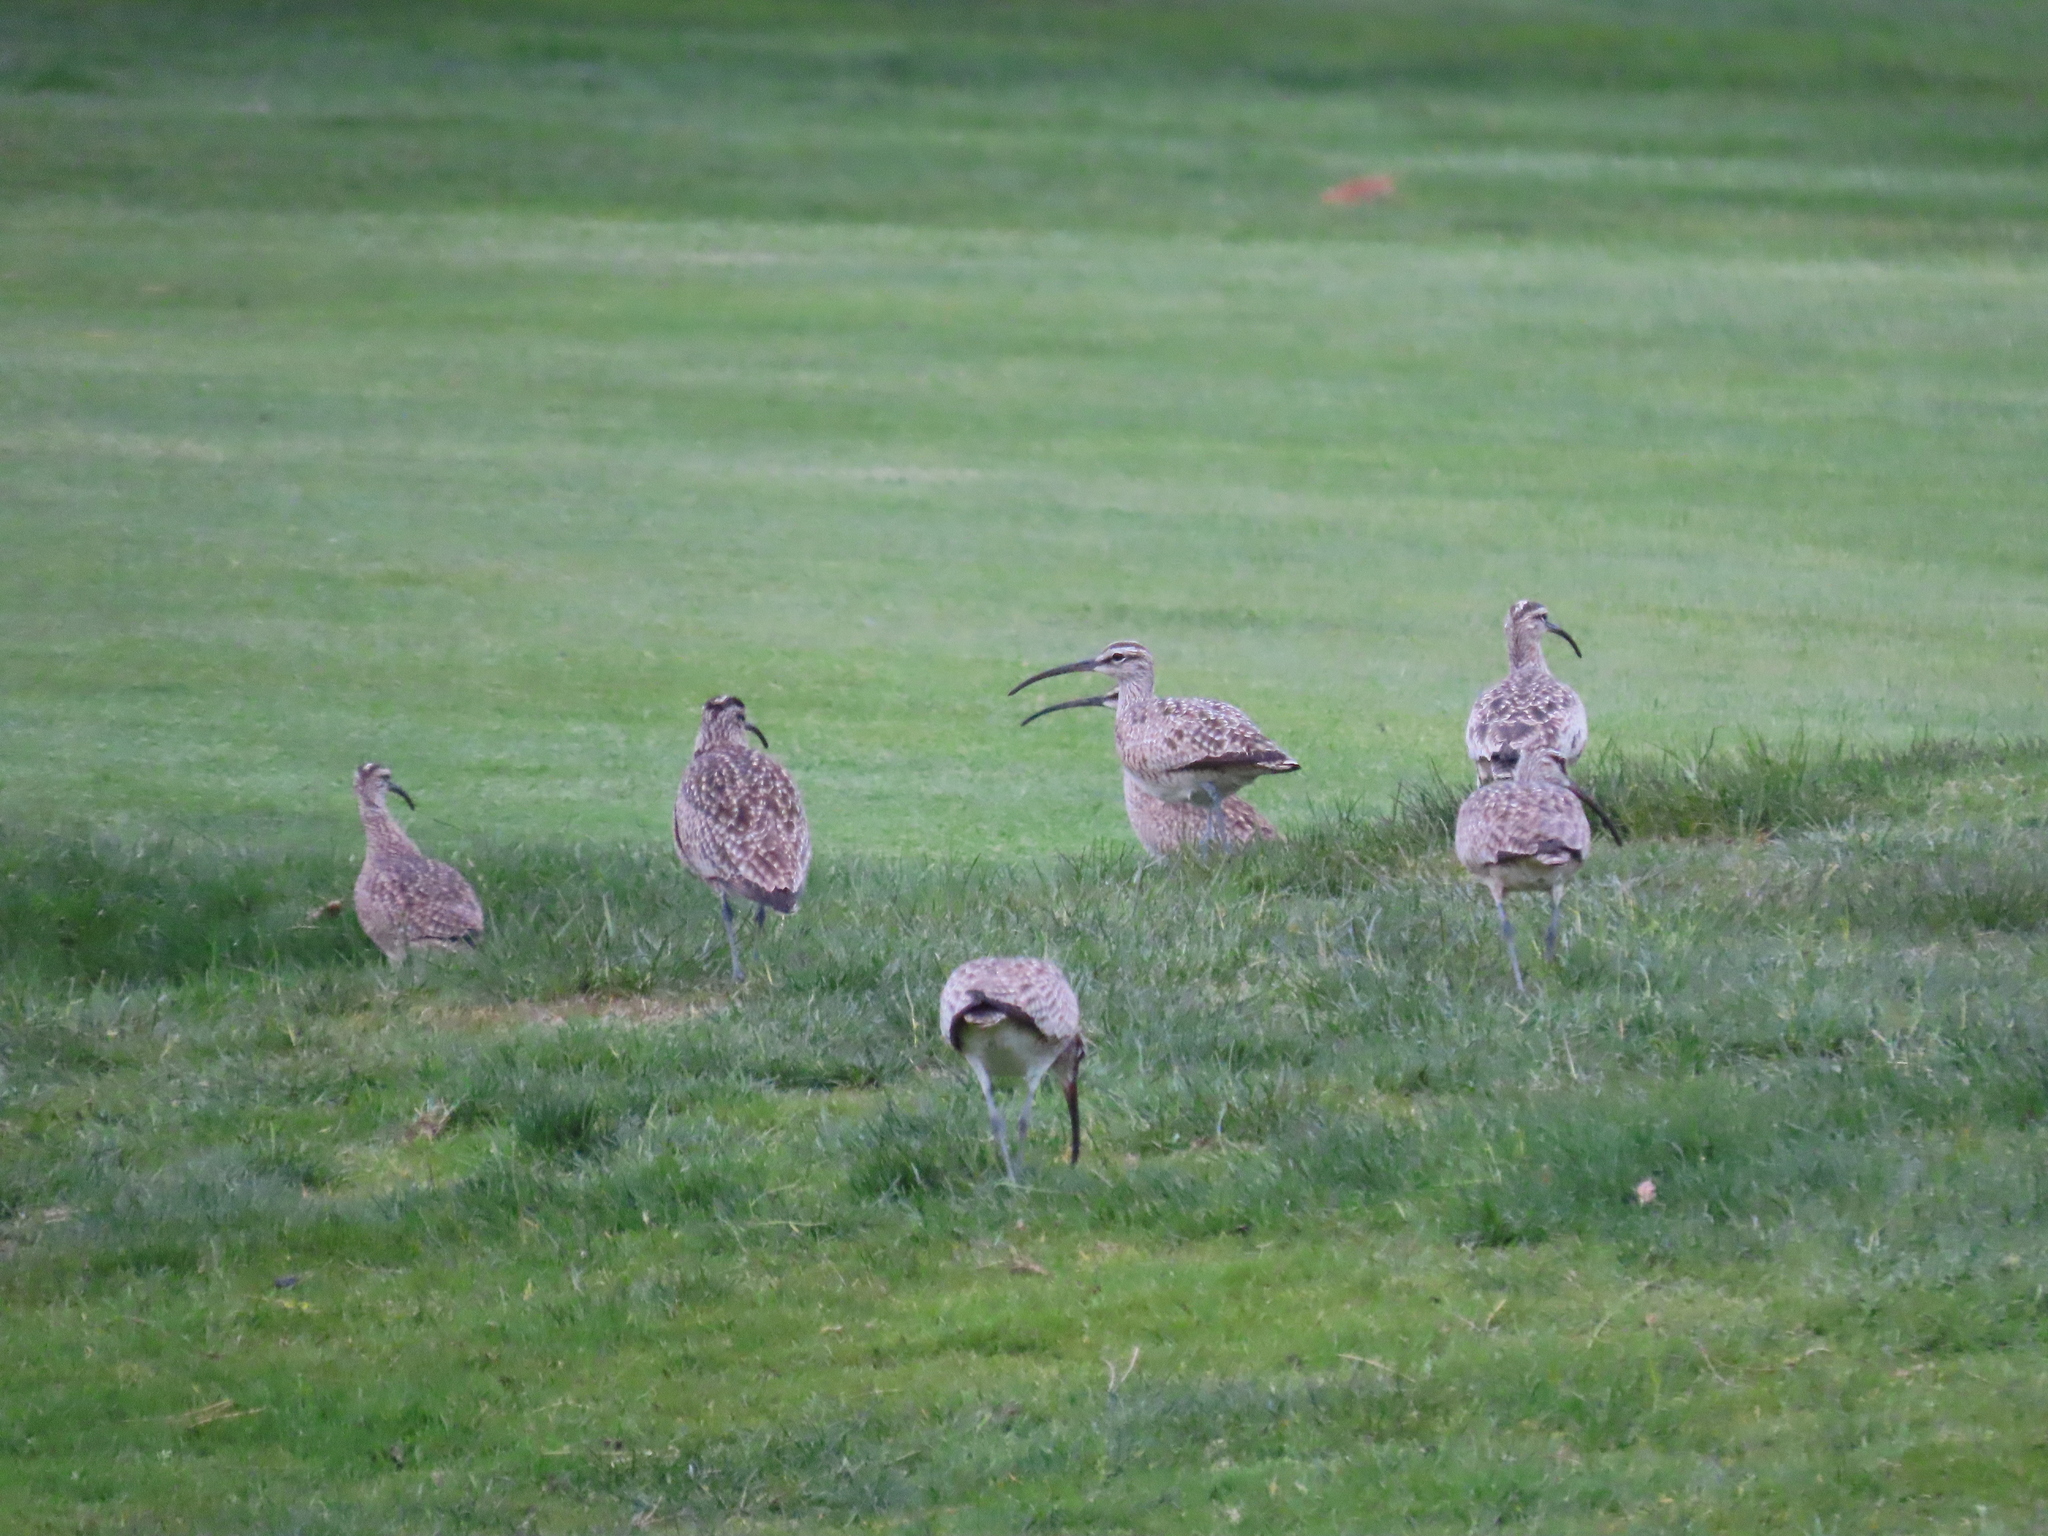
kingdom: Animalia
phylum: Chordata
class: Aves
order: Charadriiformes
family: Scolopacidae
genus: Numenius
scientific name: Numenius phaeopus
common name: Whimbrel
